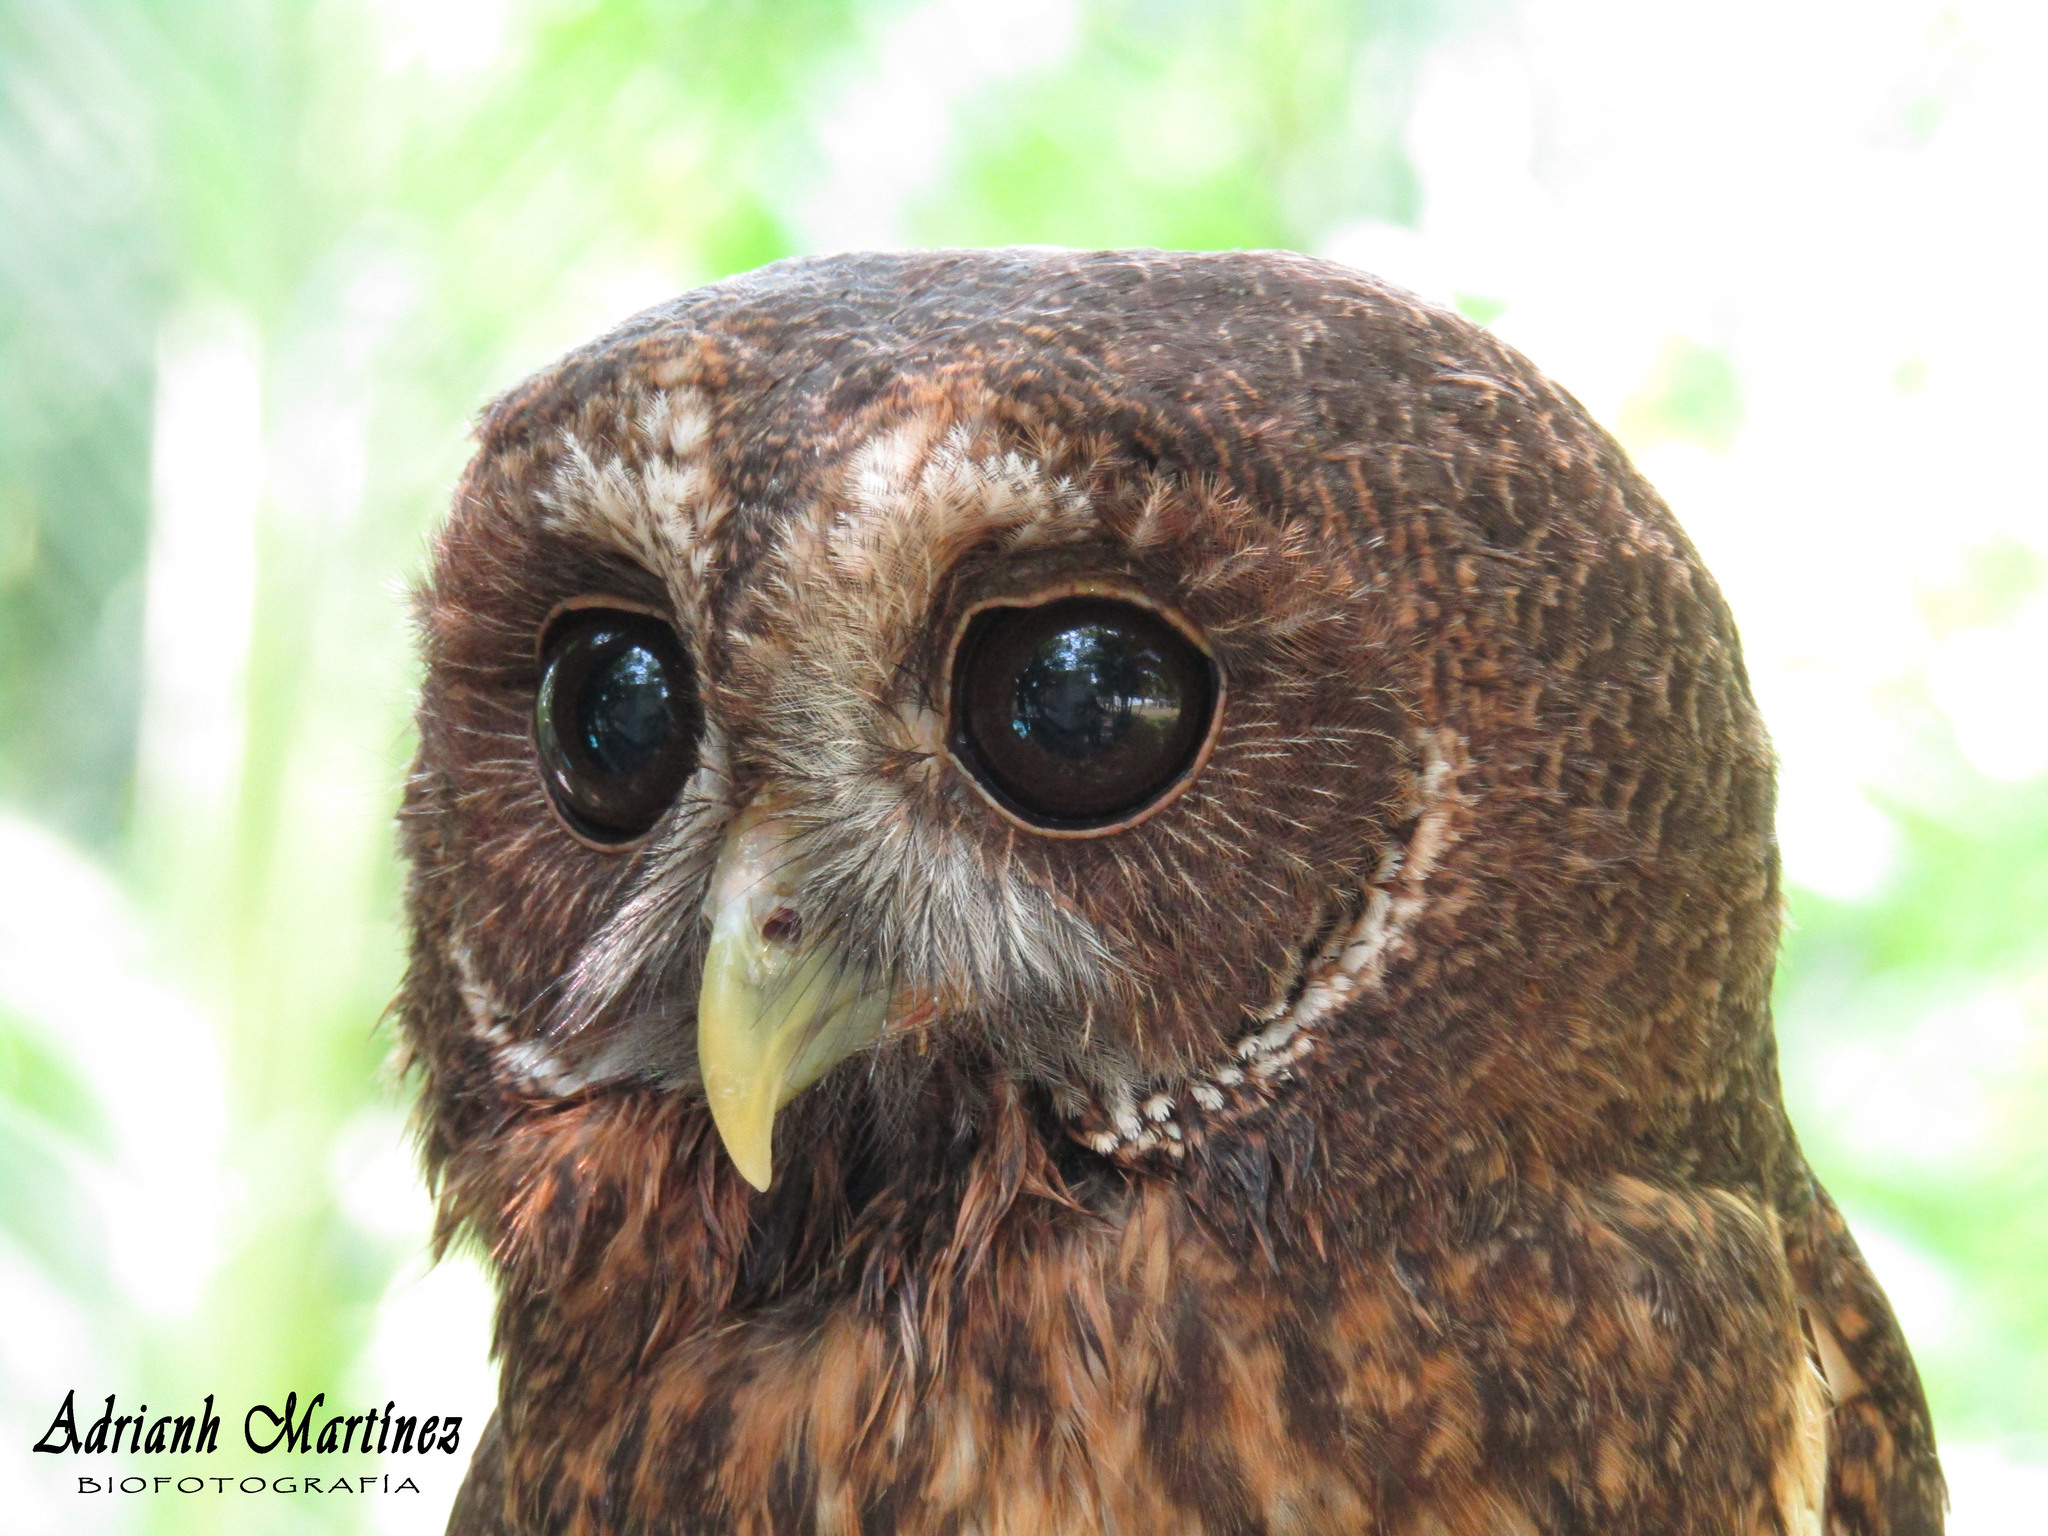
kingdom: Animalia
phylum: Chordata
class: Aves
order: Strigiformes
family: Strigidae
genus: Strix
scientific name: Strix virgata
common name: Mottled owl
